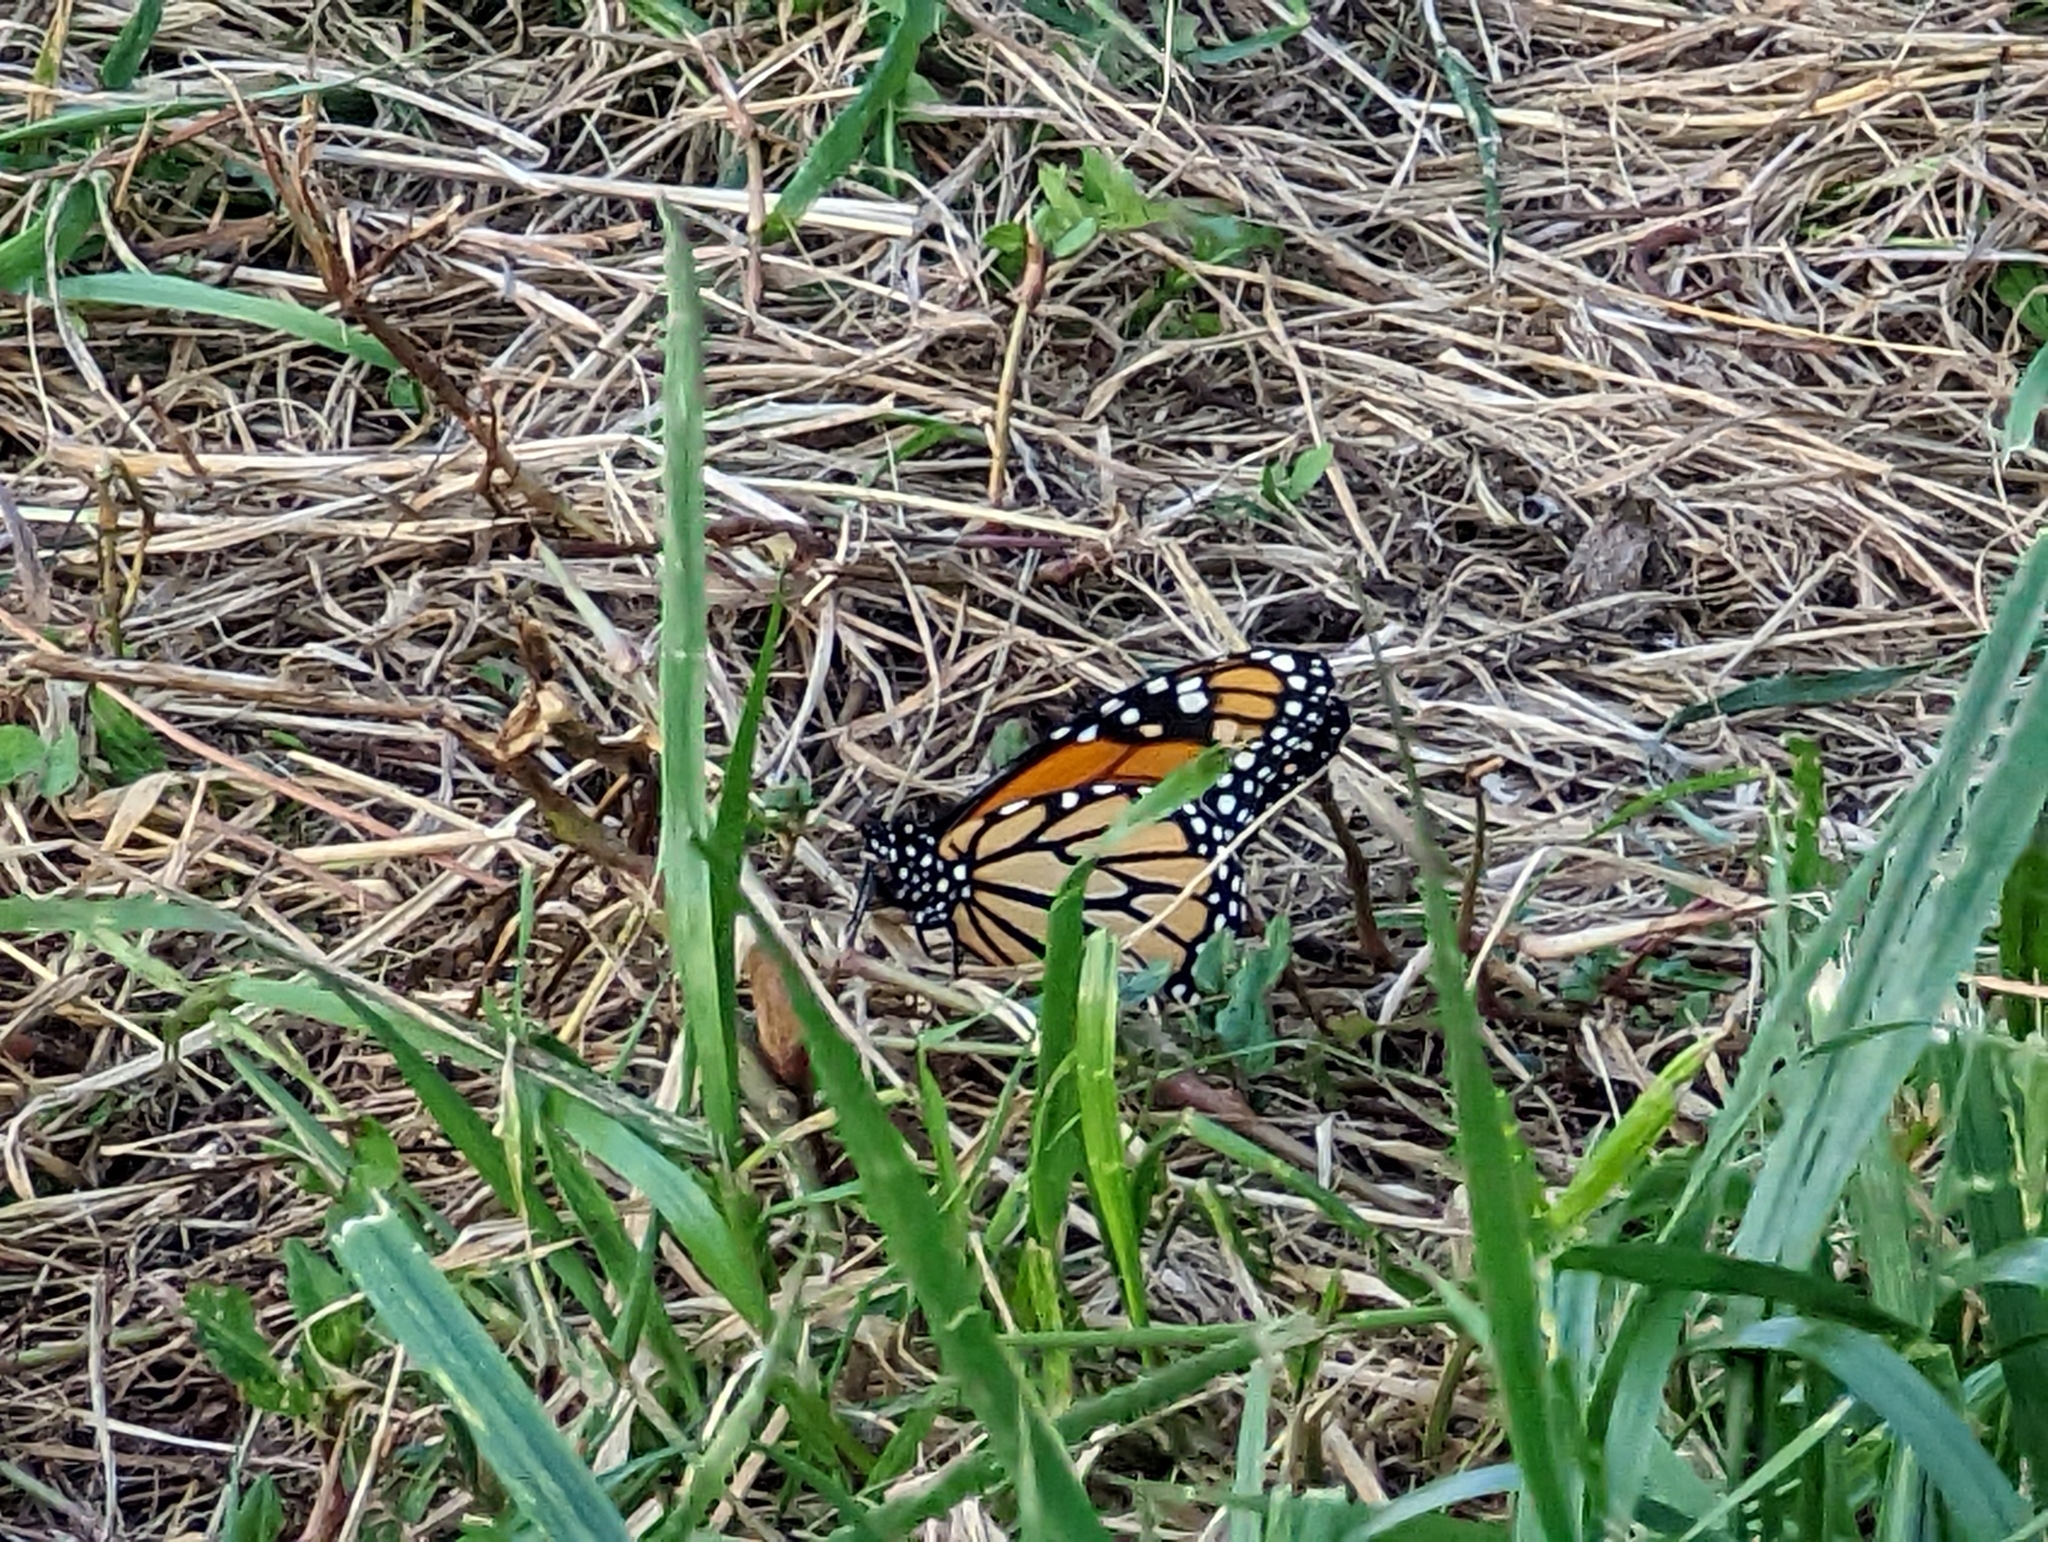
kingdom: Animalia
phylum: Arthropoda
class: Insecta
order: Lepidoptera
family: Nymphalidae
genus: Danaus
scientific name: Danaus plexippus
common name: Monarch
